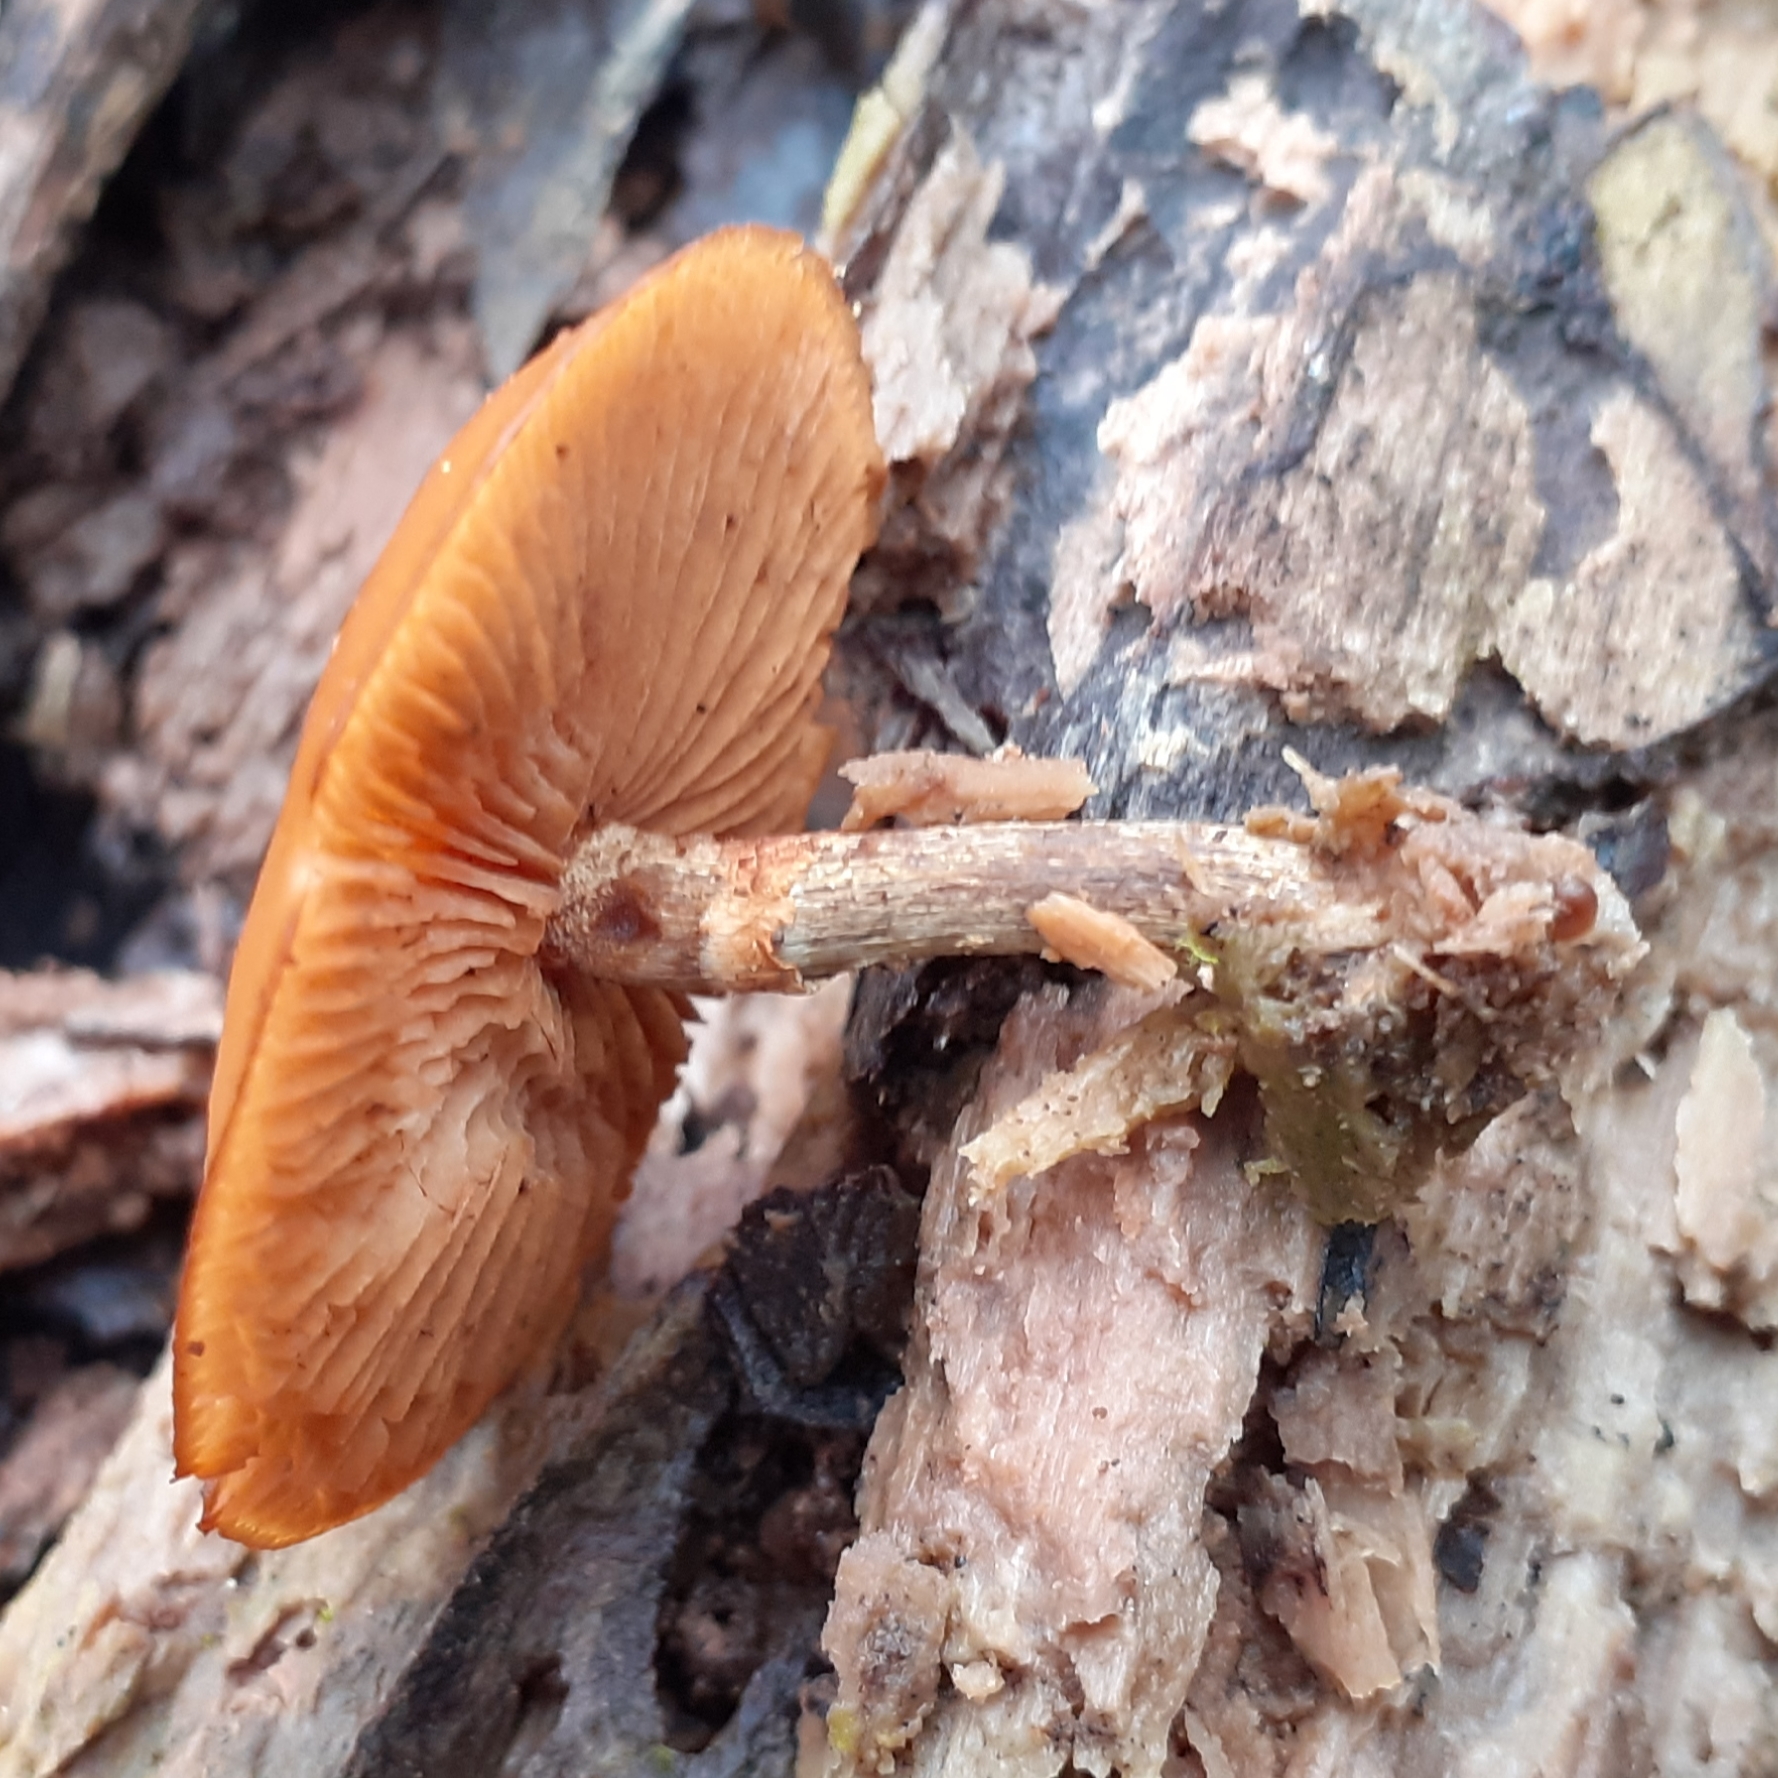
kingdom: Fungi
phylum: Basidiomycota
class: Agaricomycetes
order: Agaricales
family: Hymenogastraceae
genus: Galerina
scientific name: Galerina marginata
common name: Funeral bell
